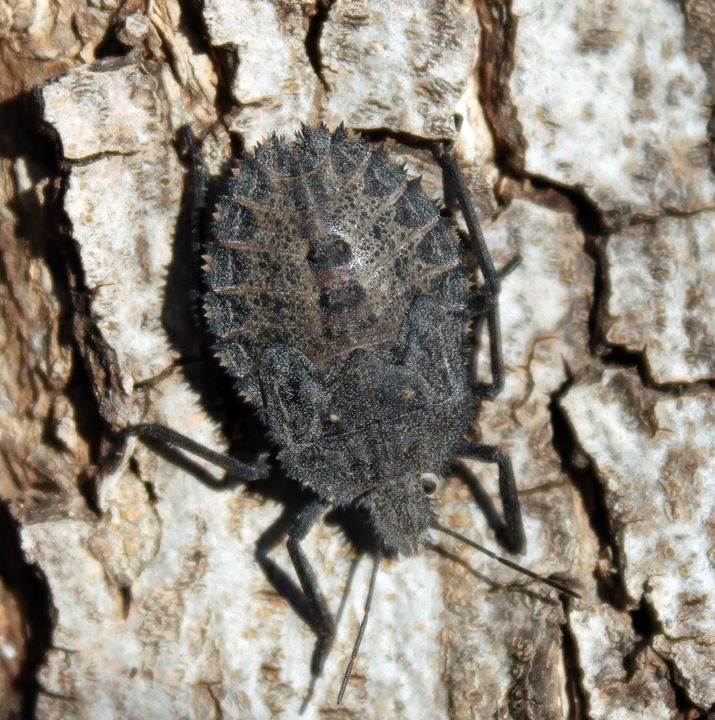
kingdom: Animalia
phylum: Arthropoda
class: Insecta
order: Hemiptera
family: Pentatomidae
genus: Mustha
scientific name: Mustha spinosula
